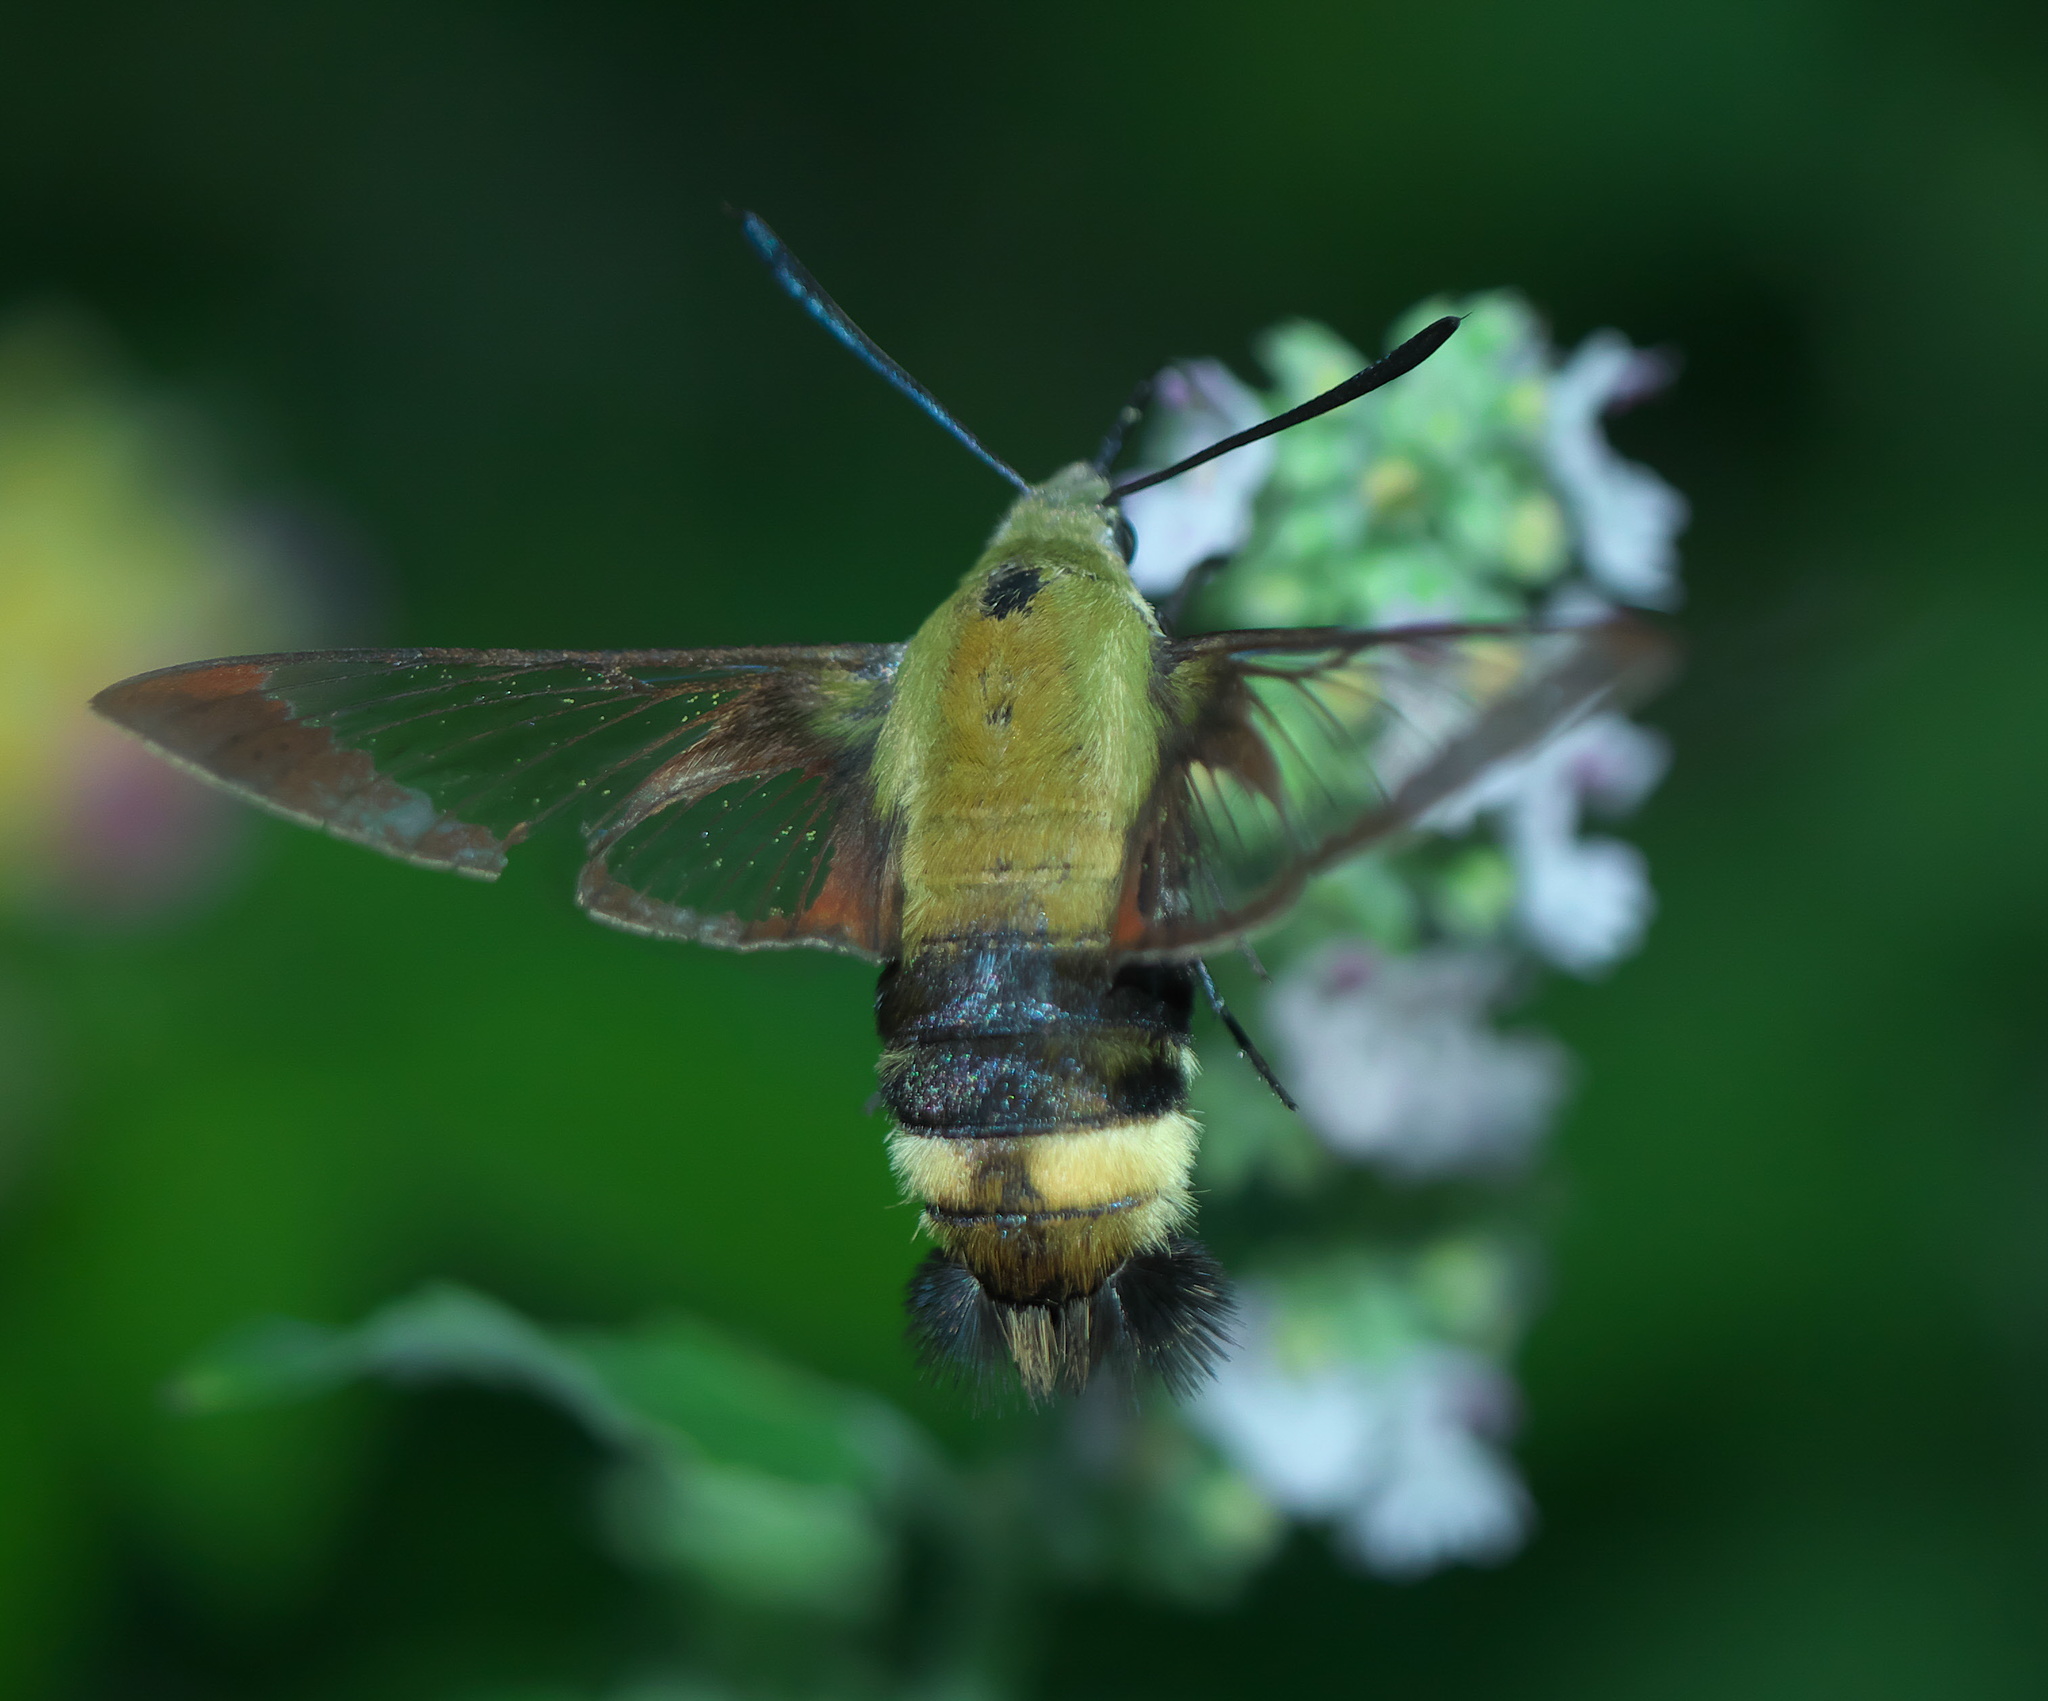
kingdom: Animalia
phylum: Arthropoda
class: Insecta
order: Lepidoptera
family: Sphingidae
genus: Hemaris
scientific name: Hemaris diffinis
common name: Bumblebee moth
